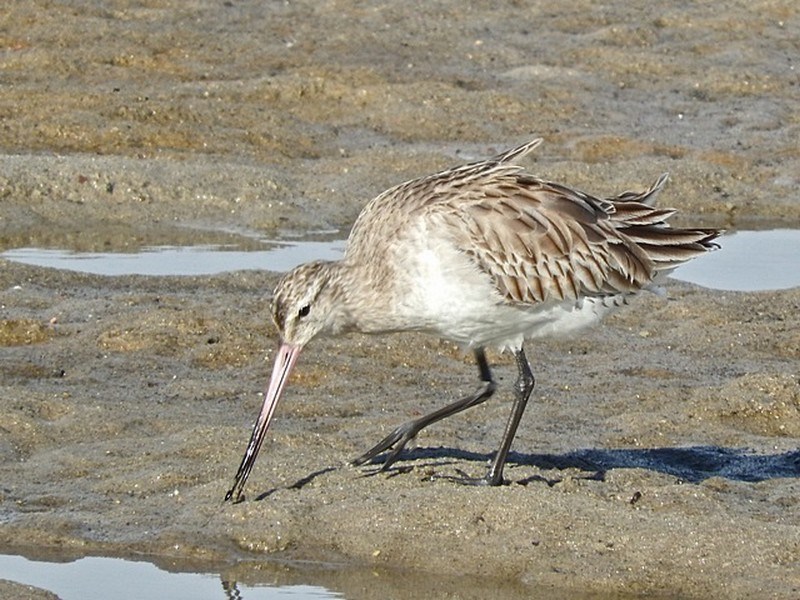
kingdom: Animalia
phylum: Chordata
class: Aves
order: Charadriiformes
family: Scolopacidae
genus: Limosa
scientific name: Limosa lapponica
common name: Bar-tailed godwit
